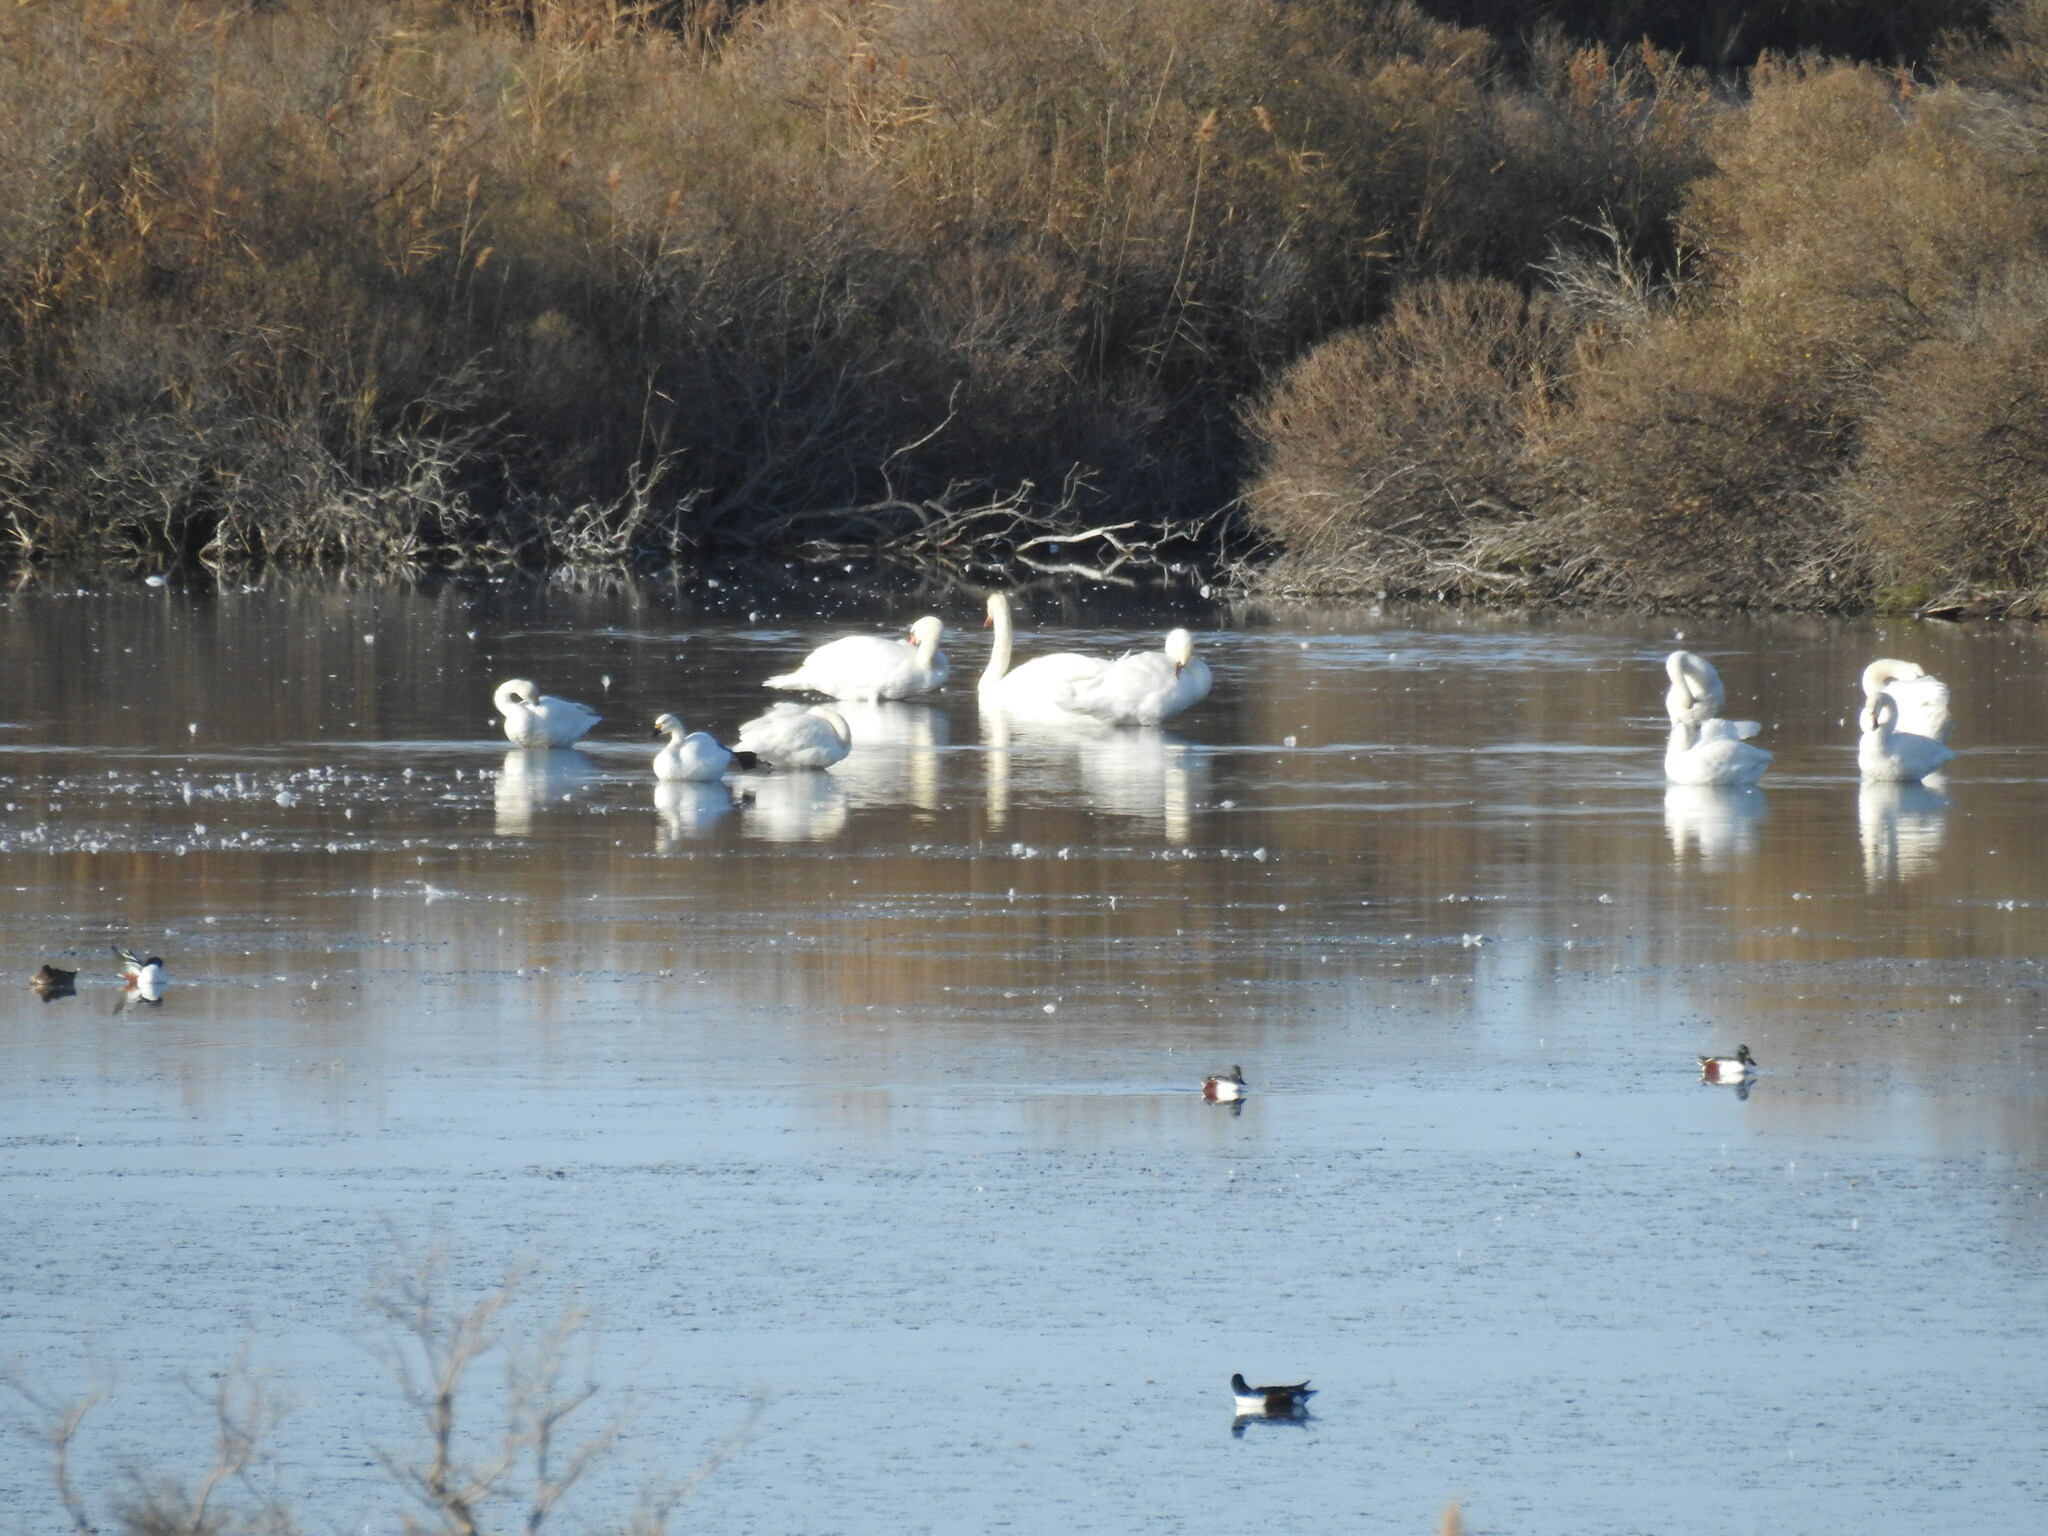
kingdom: Animalia
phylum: Chordata
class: Aves
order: Anseriformes
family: Anatidae
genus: Cygnus
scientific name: Cygnus columbianus
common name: Tundra swan
